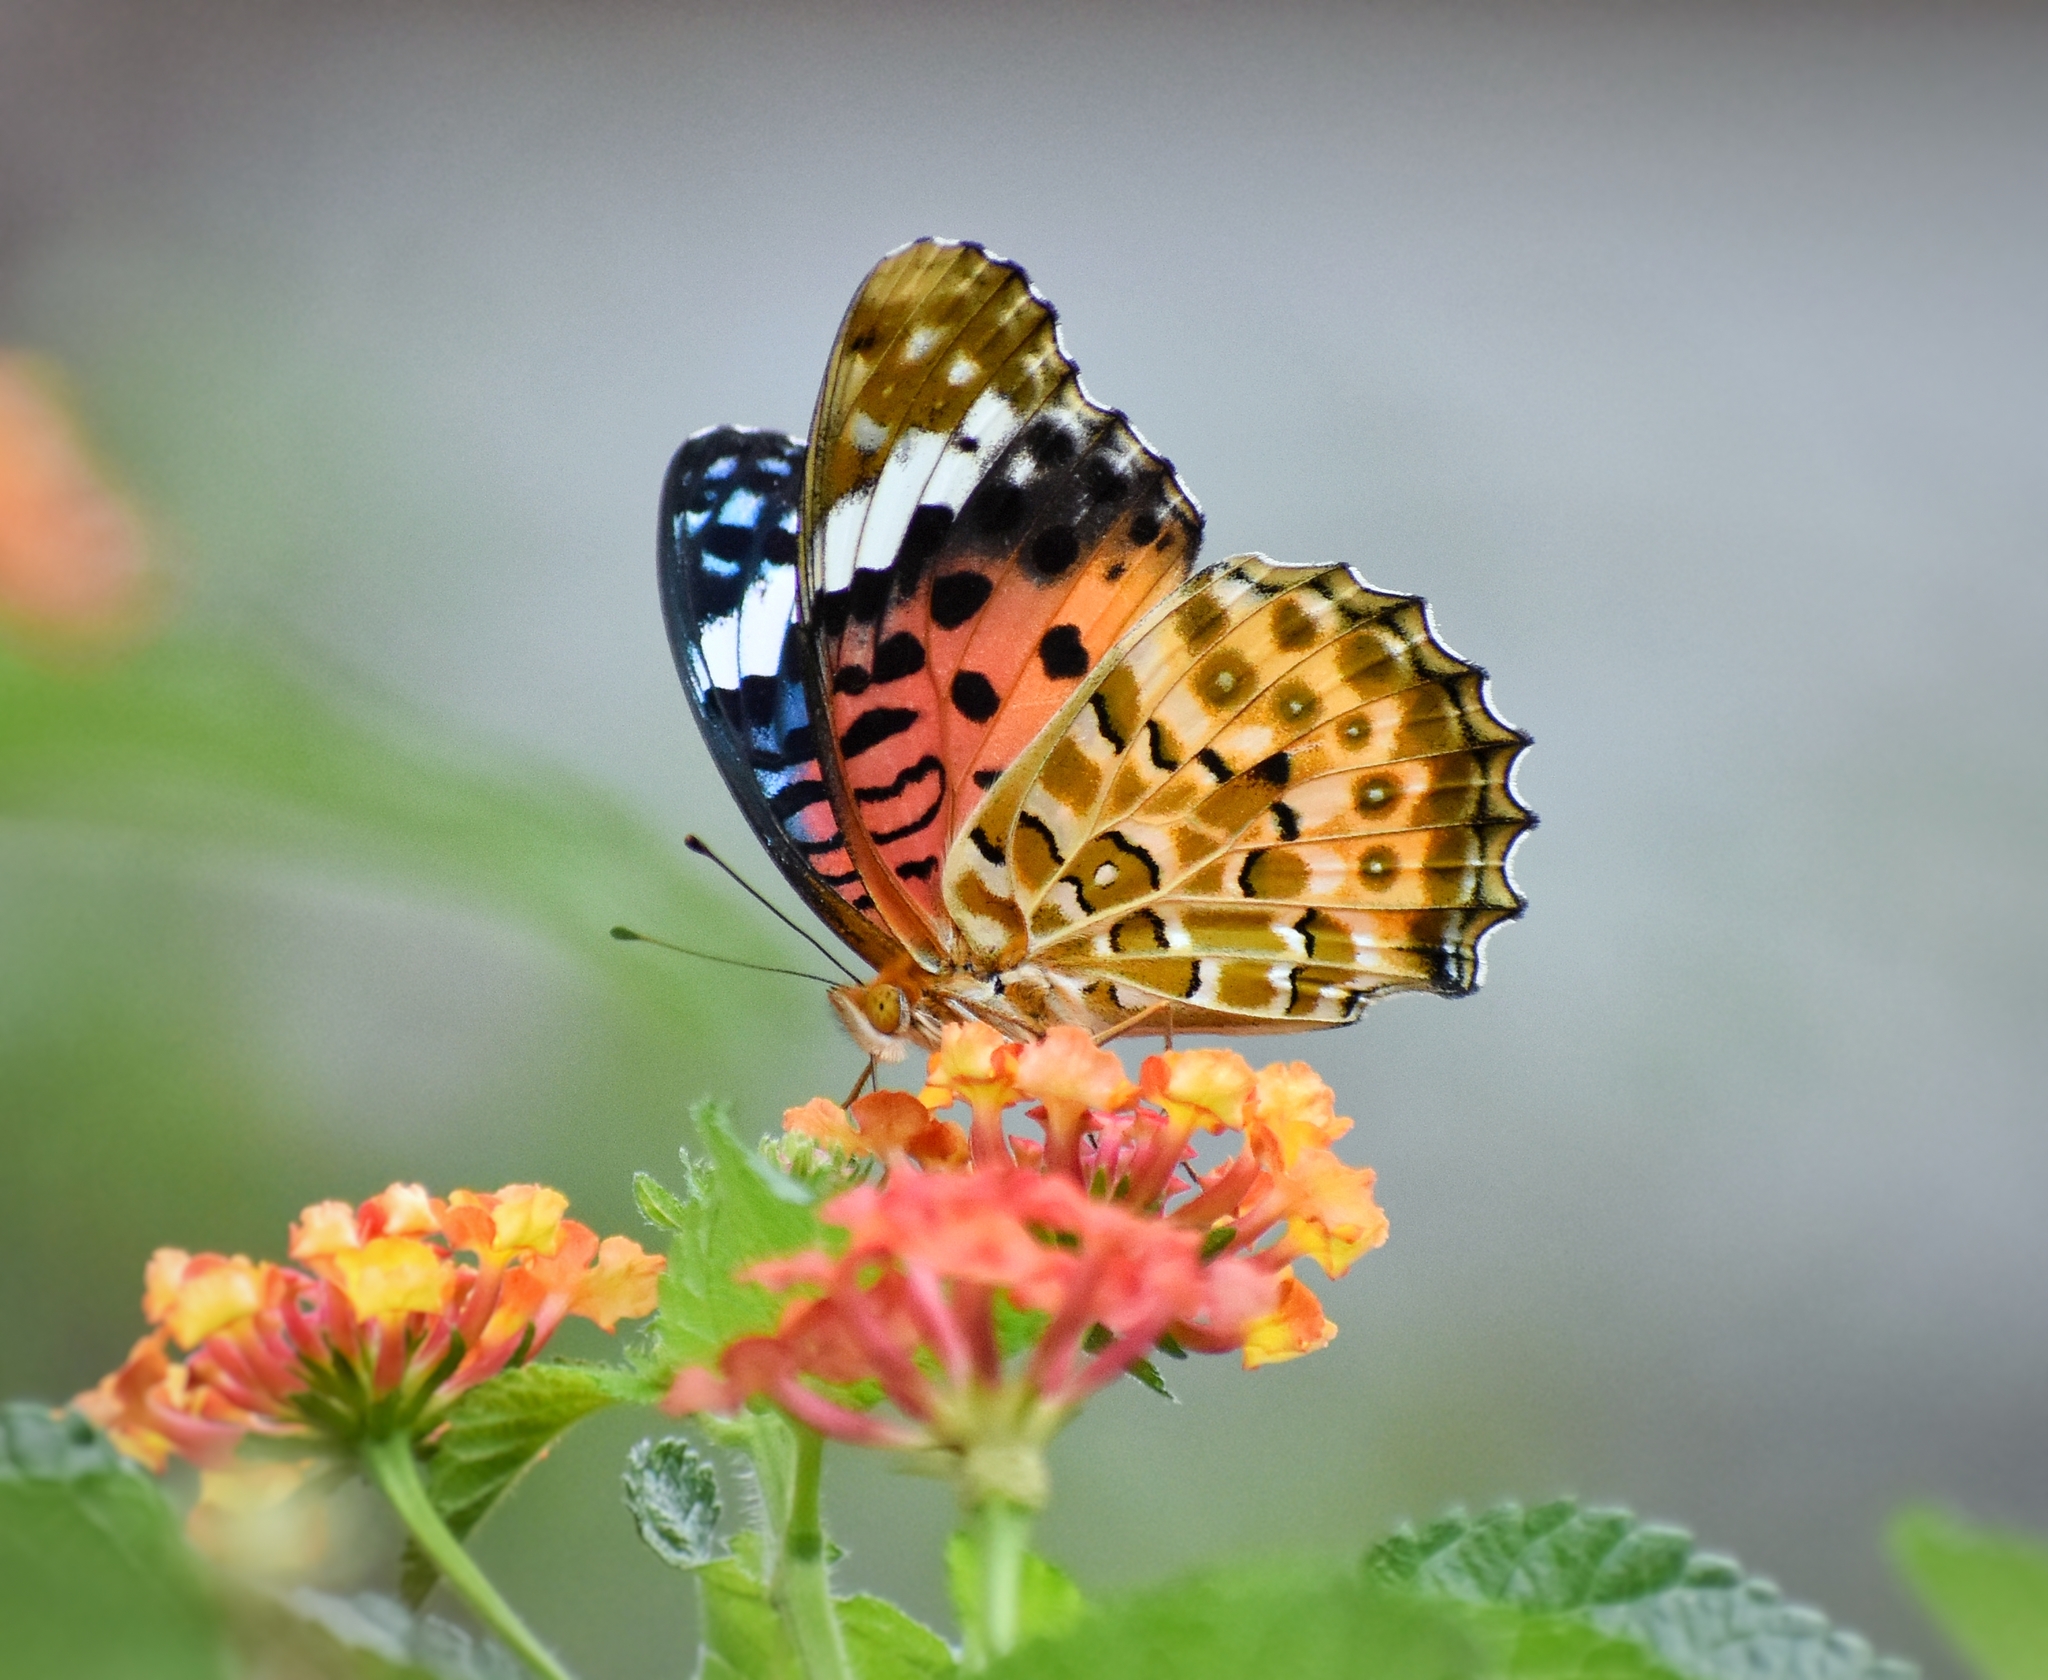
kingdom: Animalia
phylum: Arthropoda
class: Insecta
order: Lepidoptera
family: Nymphalidae
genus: Argynnis
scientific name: Argynnis hyperbius
